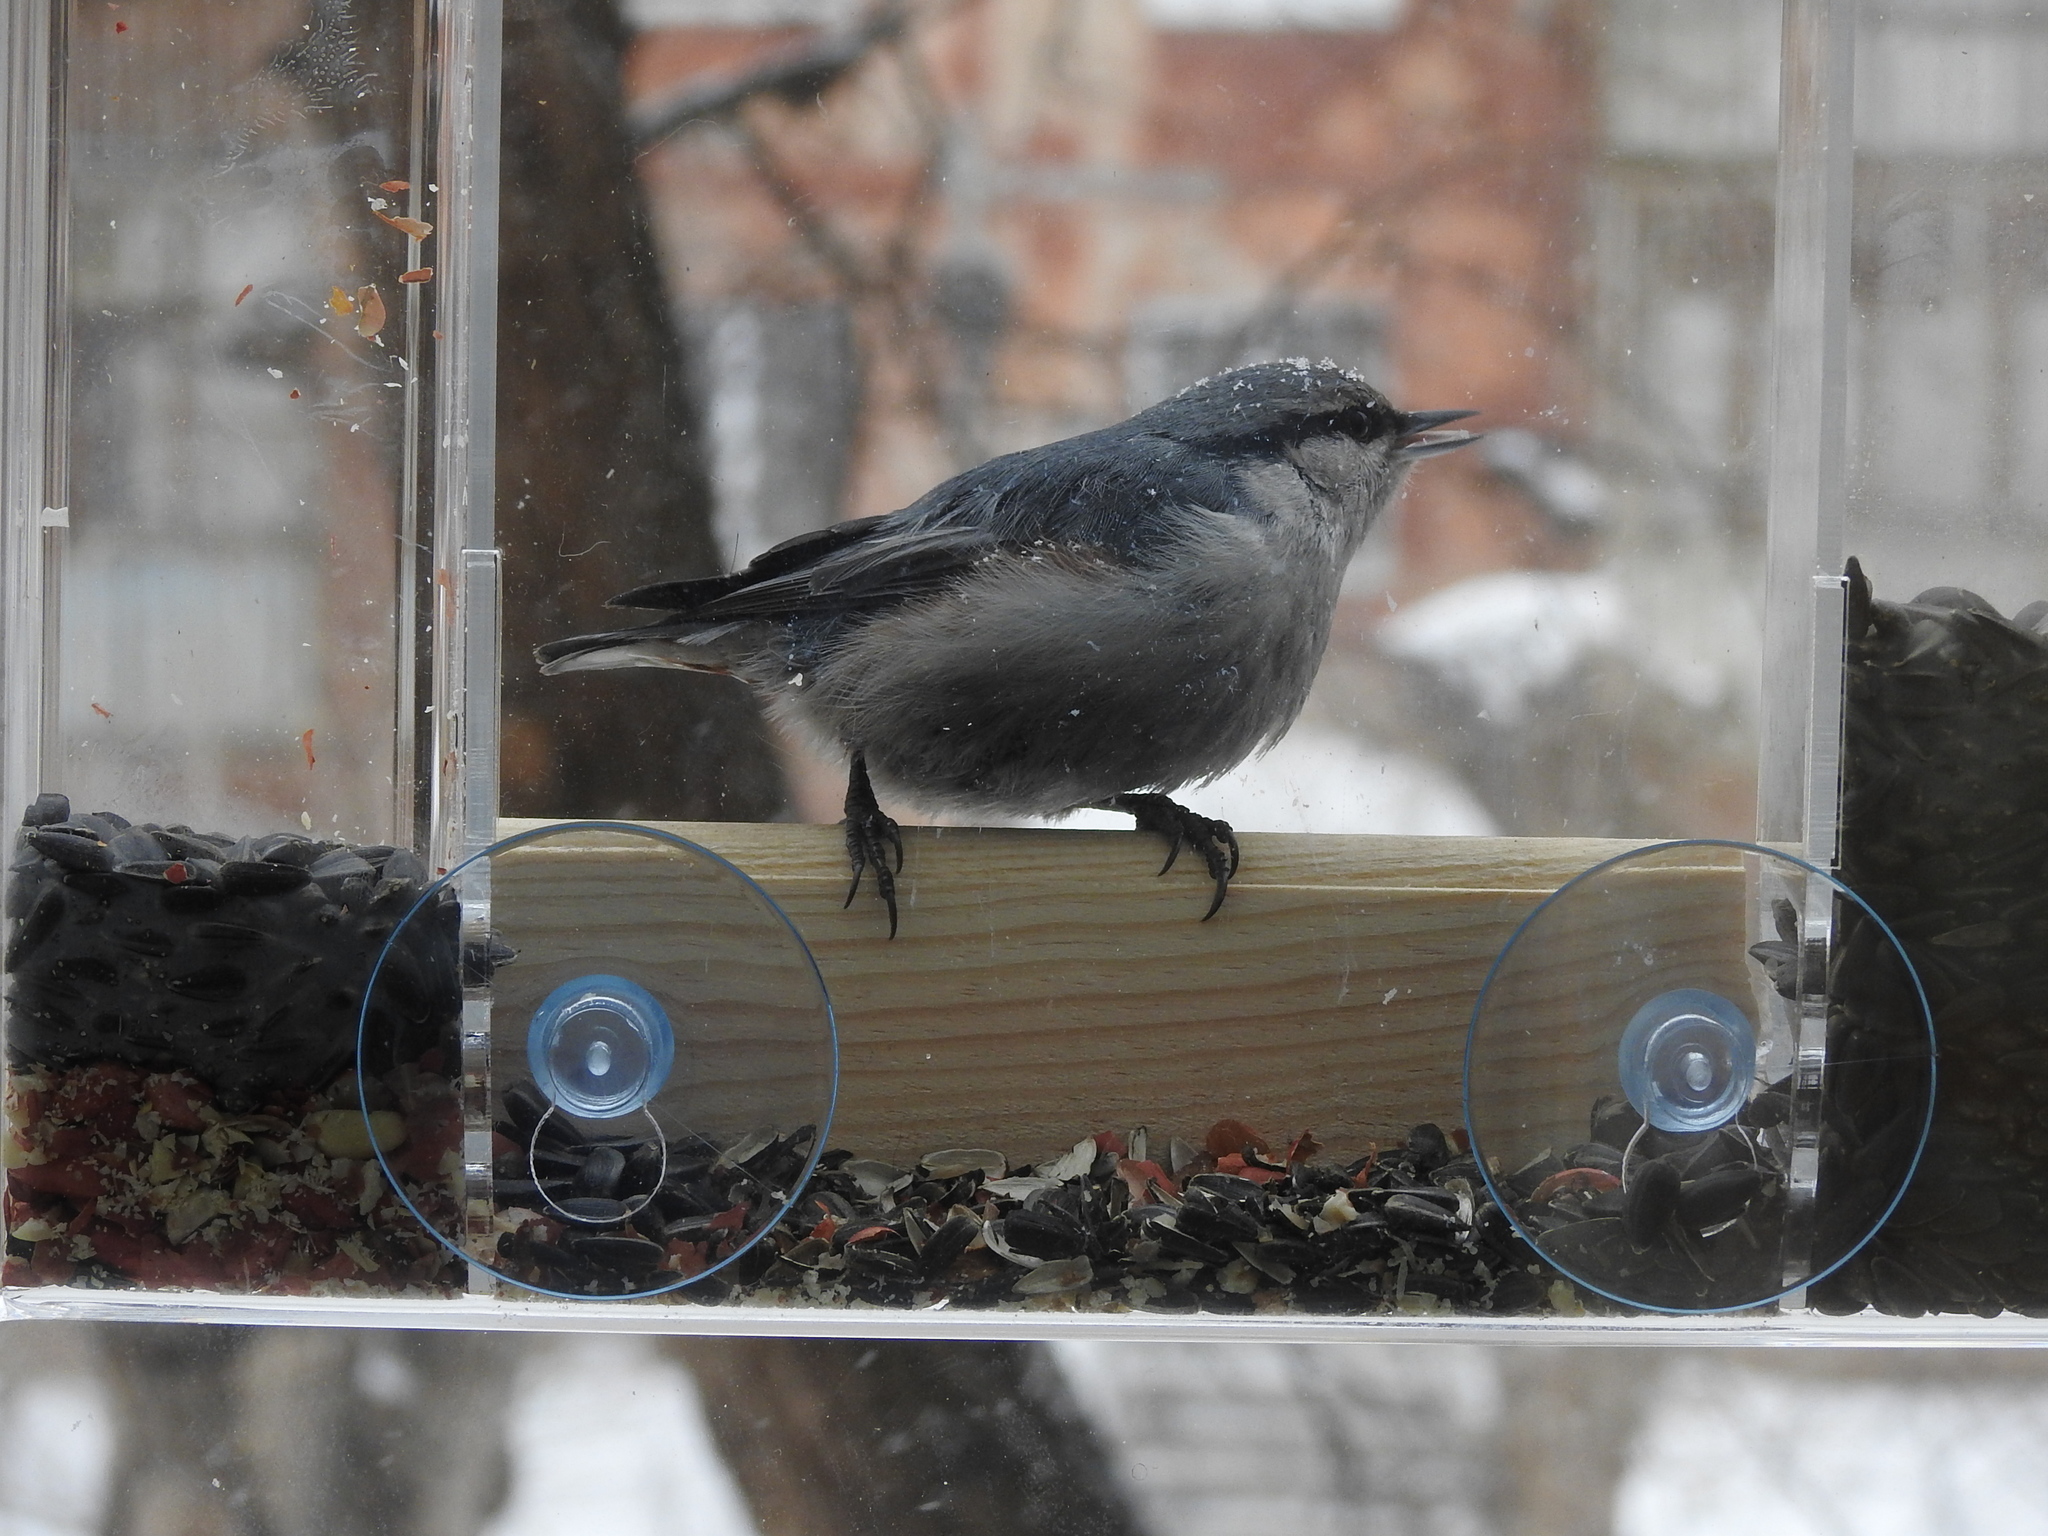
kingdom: Animalia
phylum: Chordata
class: Aves
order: Passeriformes
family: Sittidae
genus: Sitta
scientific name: Sitta europaea
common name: Eurasian nuthatch
